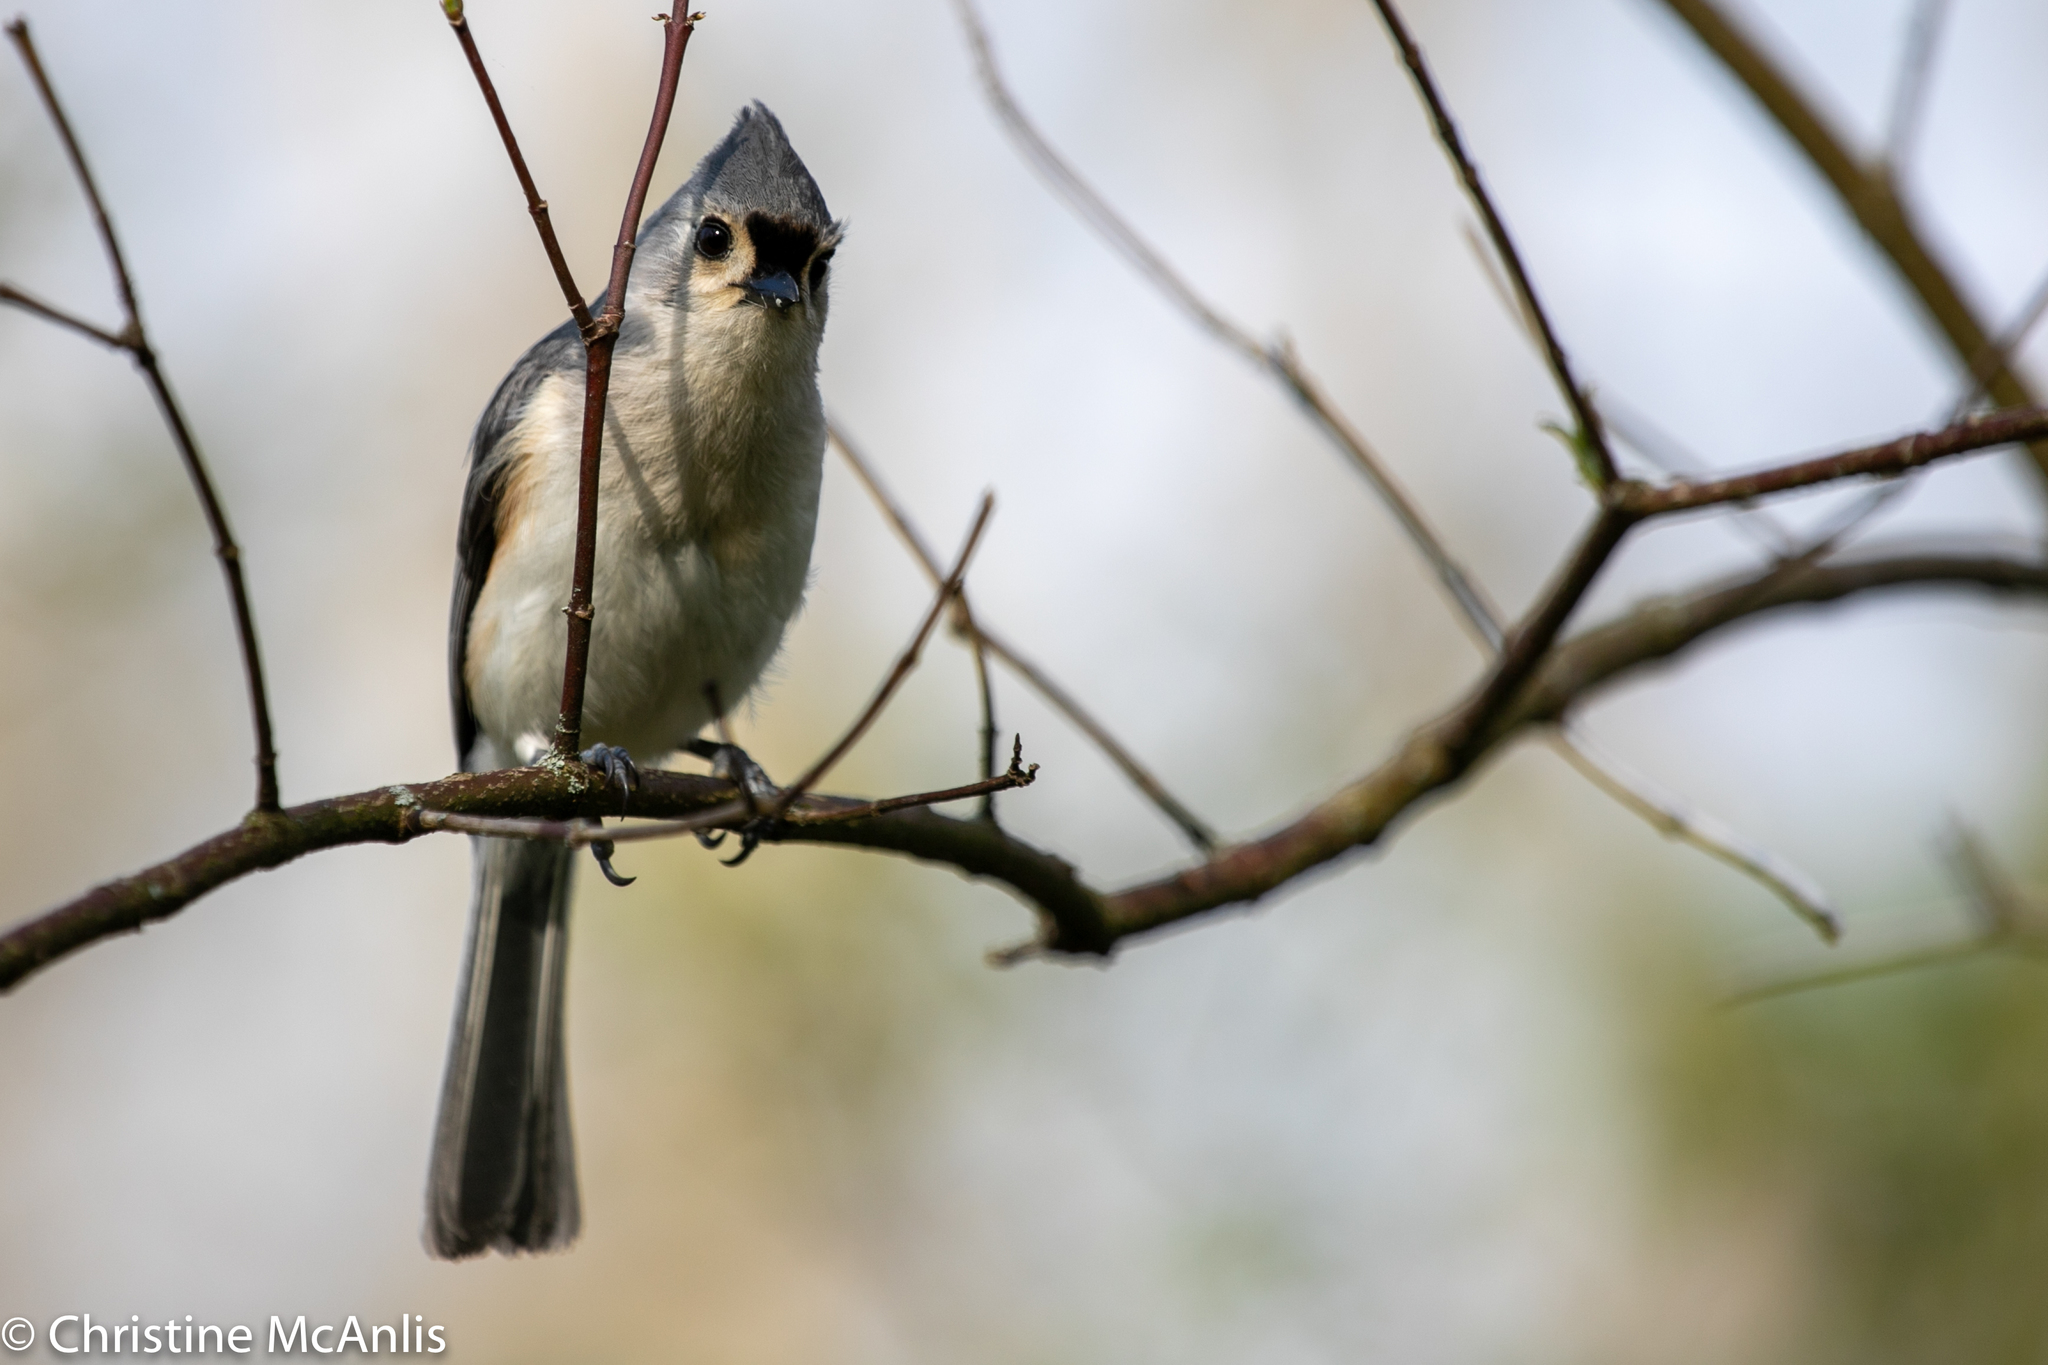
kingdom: Animalia
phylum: Chordata
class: Aves
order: Passeriformes
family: Paridae
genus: Baeolophus
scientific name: Baeolophus bicolor
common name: Tufted titmouse
